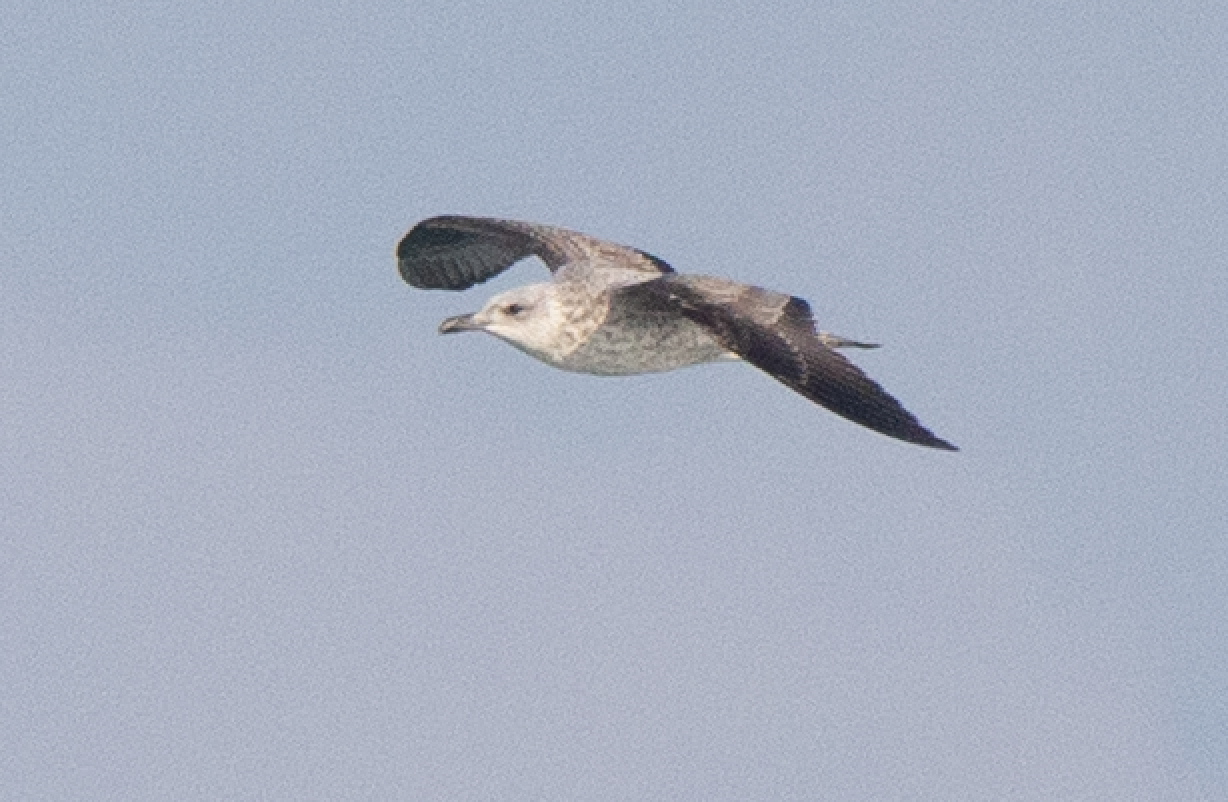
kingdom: Animalia
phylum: Chordata
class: Aves
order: Charadriiformes
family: Laridae
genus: Larus
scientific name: Larus michahellis
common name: Yellow-legged gull
